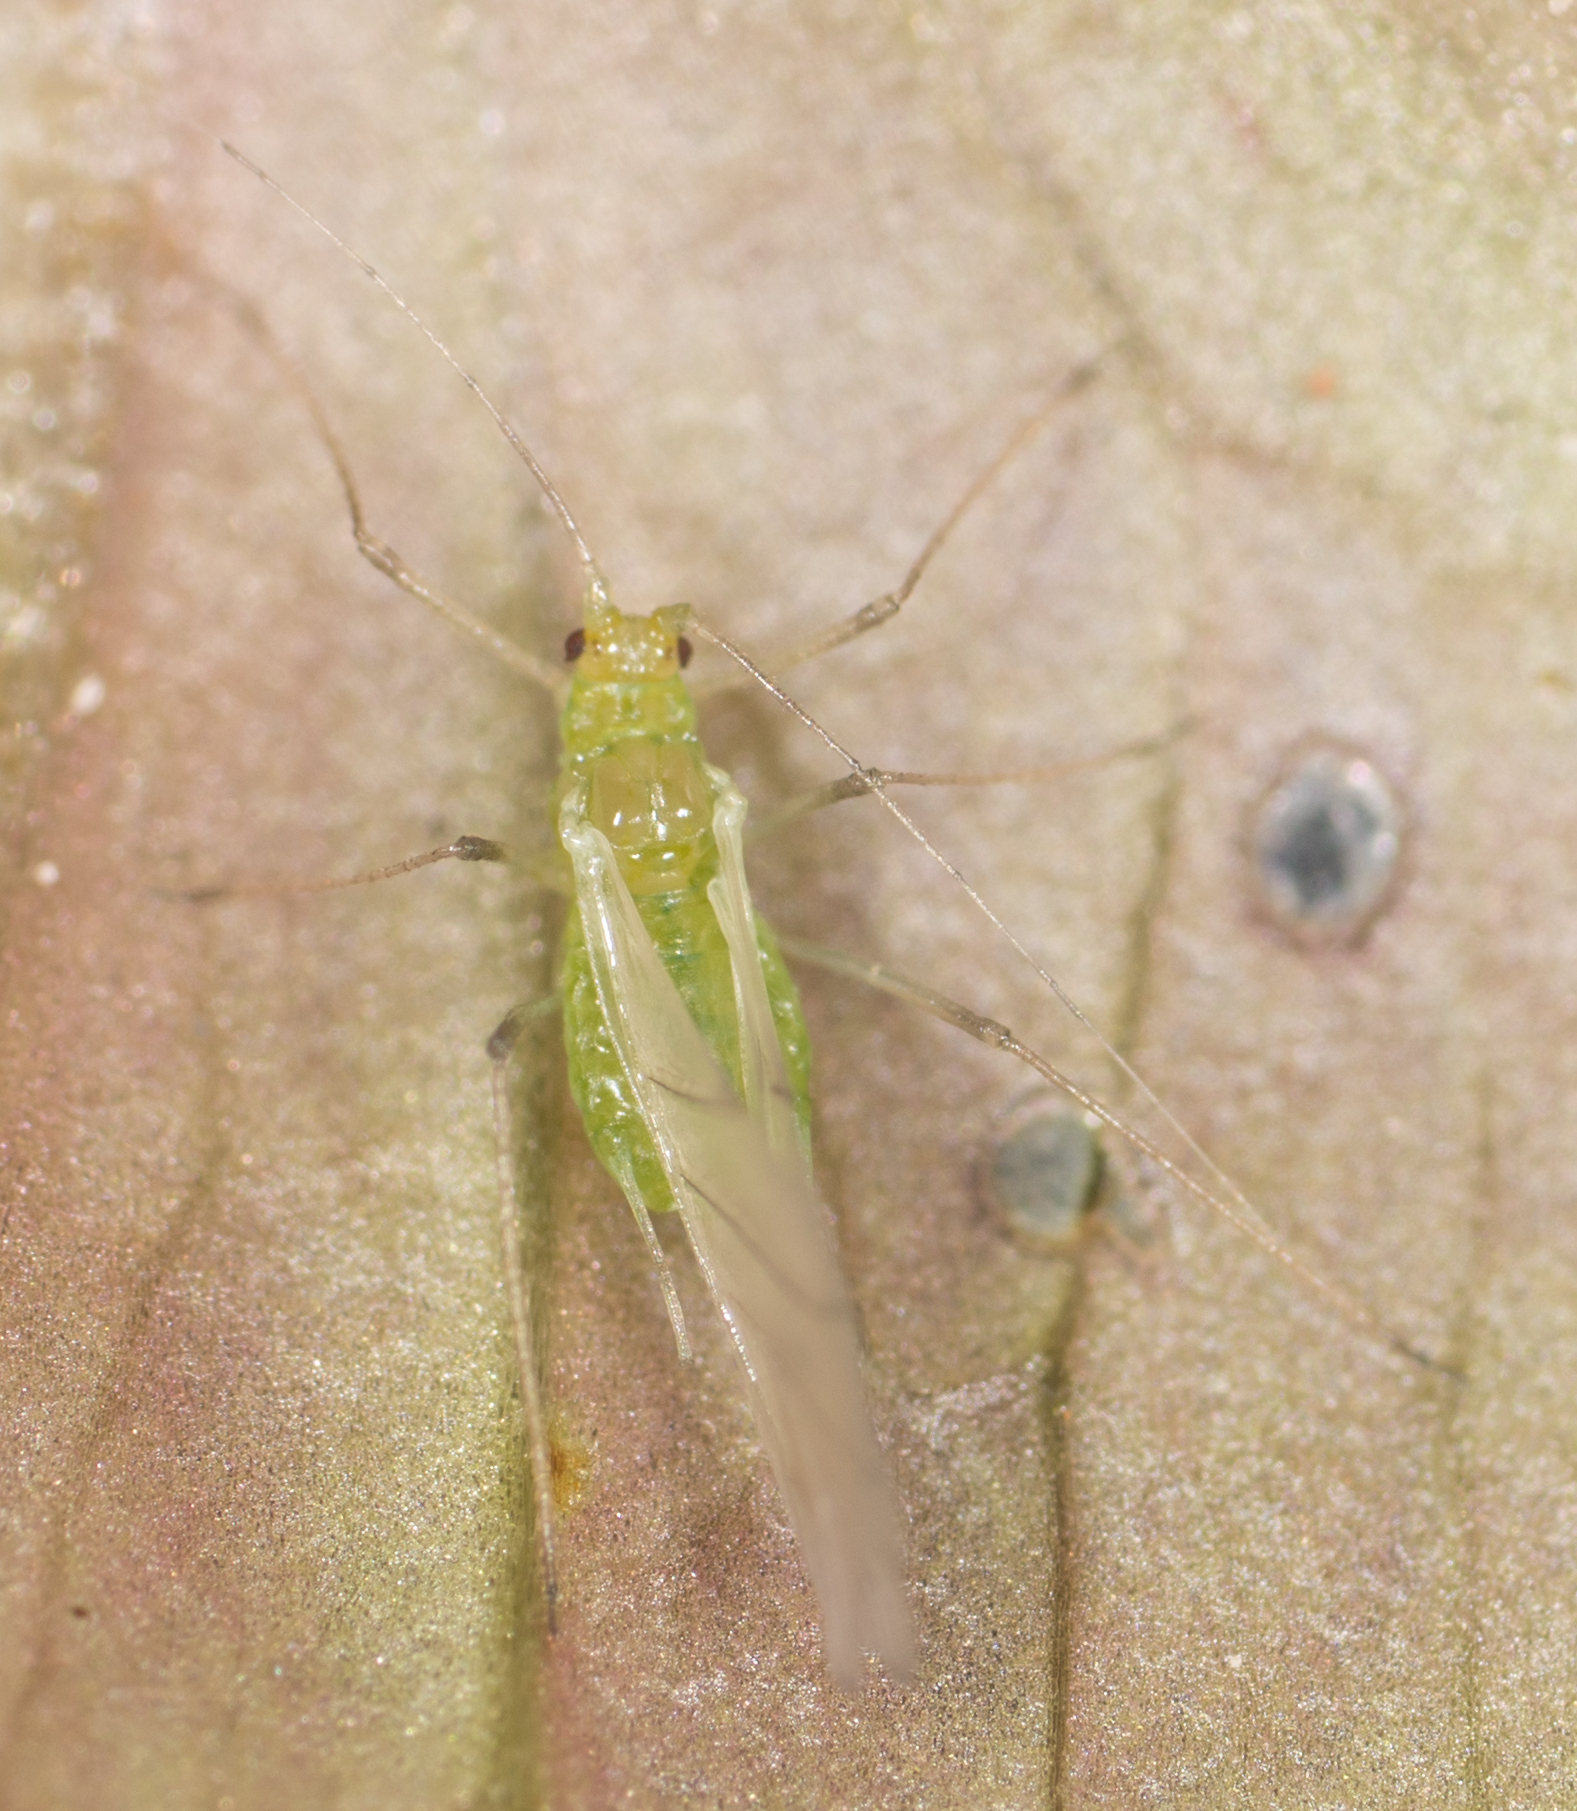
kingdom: Animalia
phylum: Arthropoda
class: Insecta
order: Hemiptera
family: Aphididae
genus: Macrosiphum
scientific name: Macrosiphum euphorbiae
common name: Potato aphid
